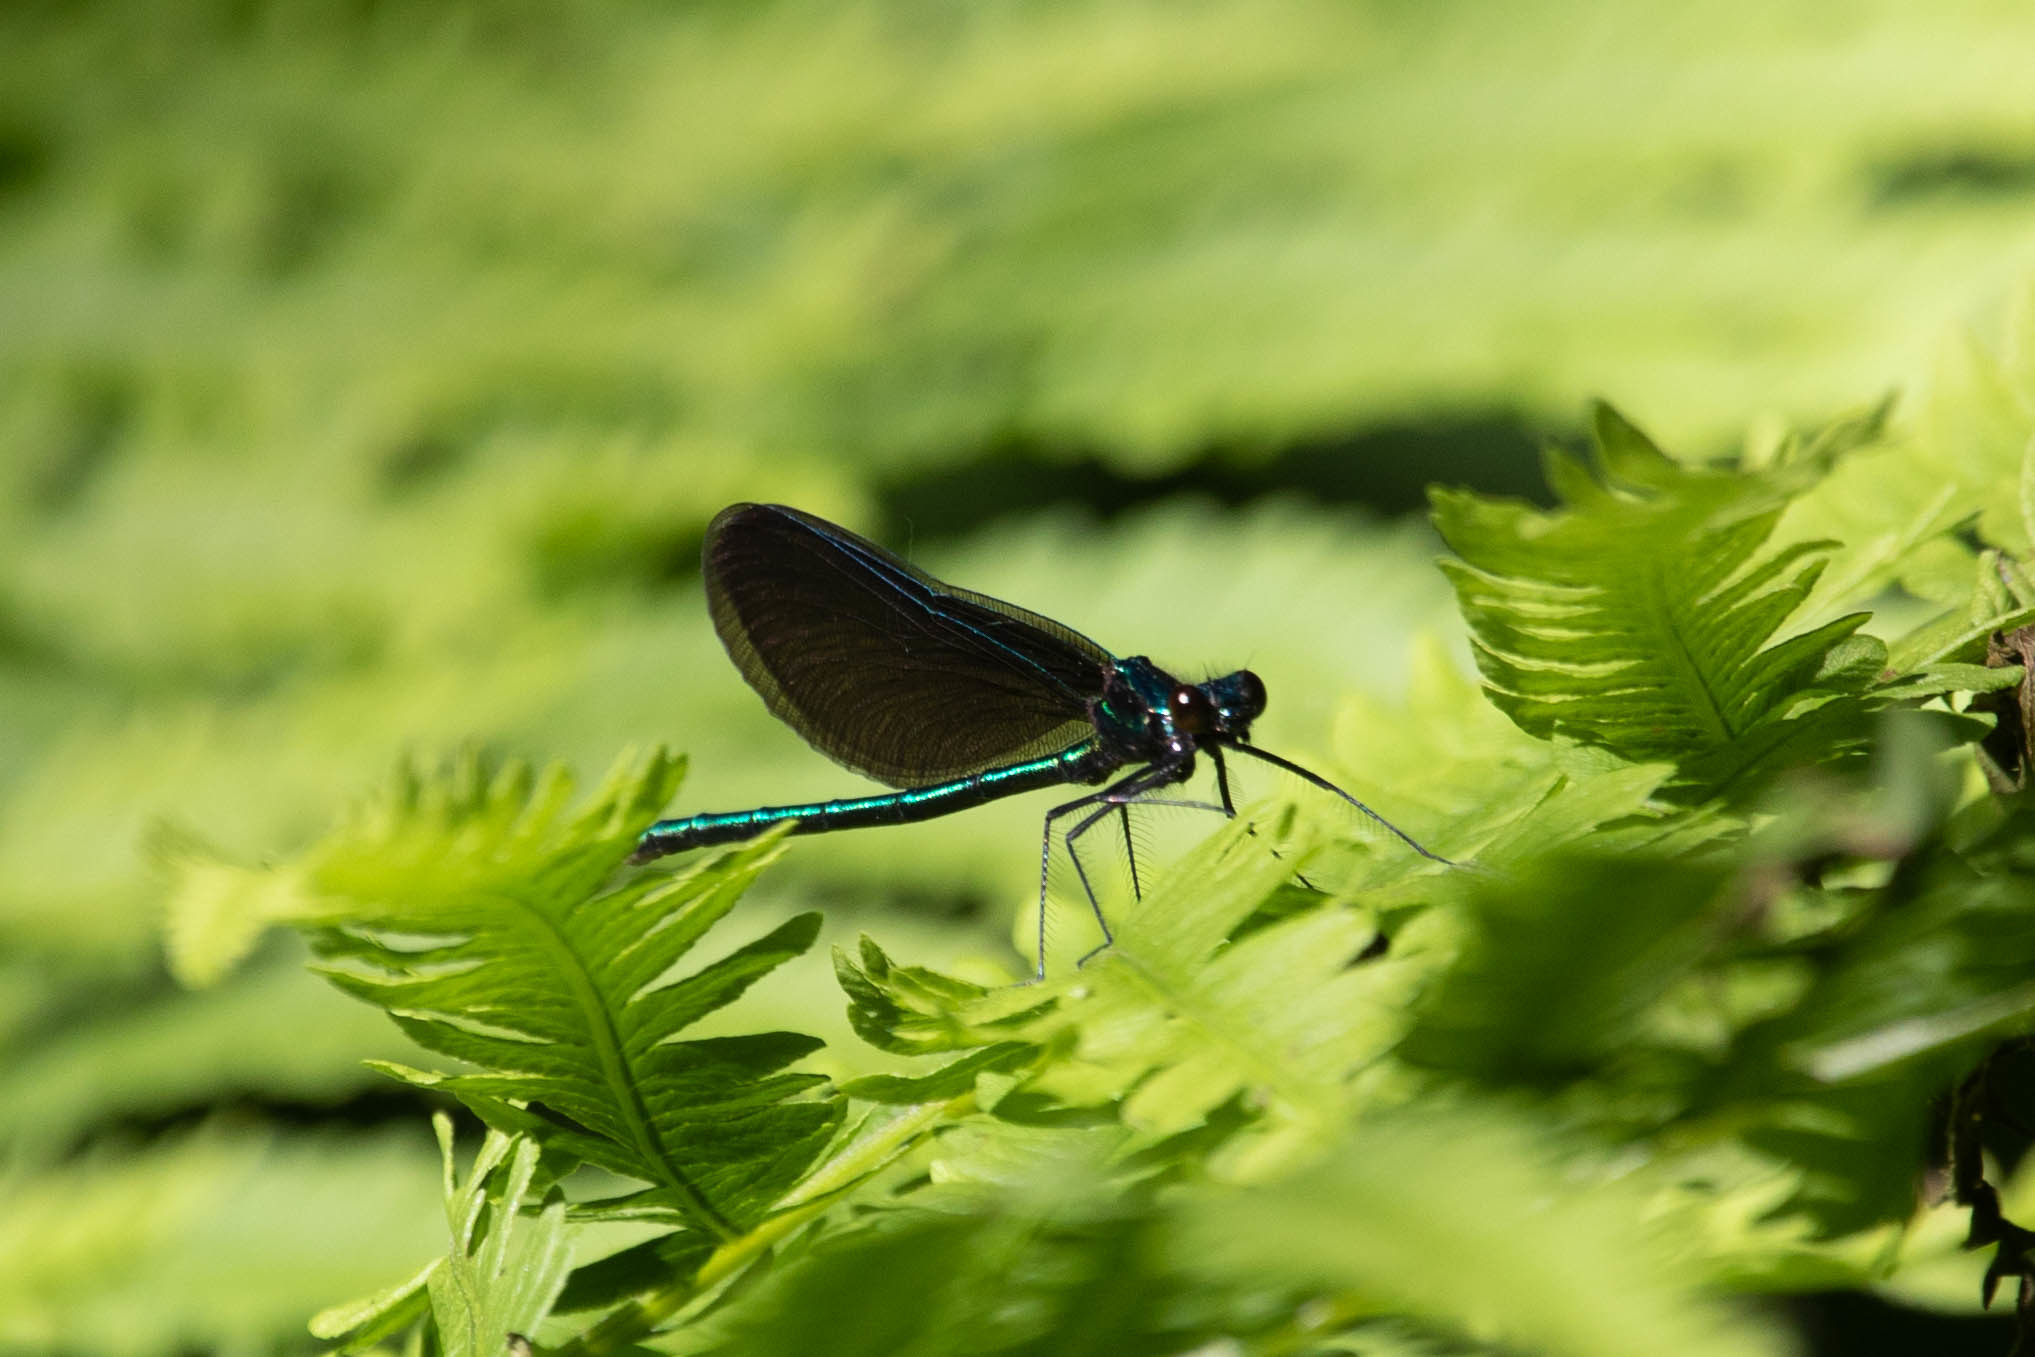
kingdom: Animalia
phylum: Arthropoda
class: Insecta
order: Odonata
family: Calopterygidae
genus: Calopteryx
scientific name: Calopteryx maculata
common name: Ebony jewelwing
